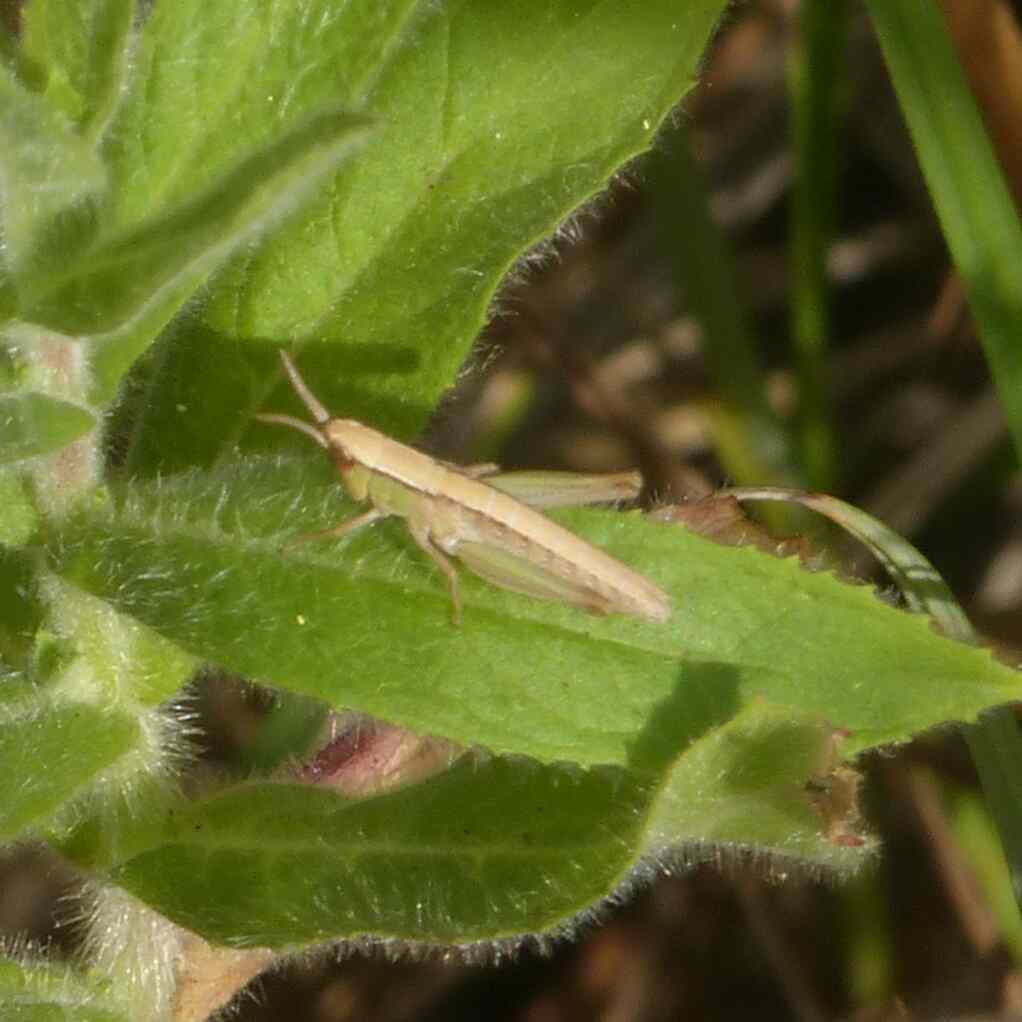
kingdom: Animalia
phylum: Arthropoda
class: Insecta
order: Orthoptera
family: Acrididae
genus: Chorthippus
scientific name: Chorthippus albomarginatus
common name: Lesser marsh grasshopper
